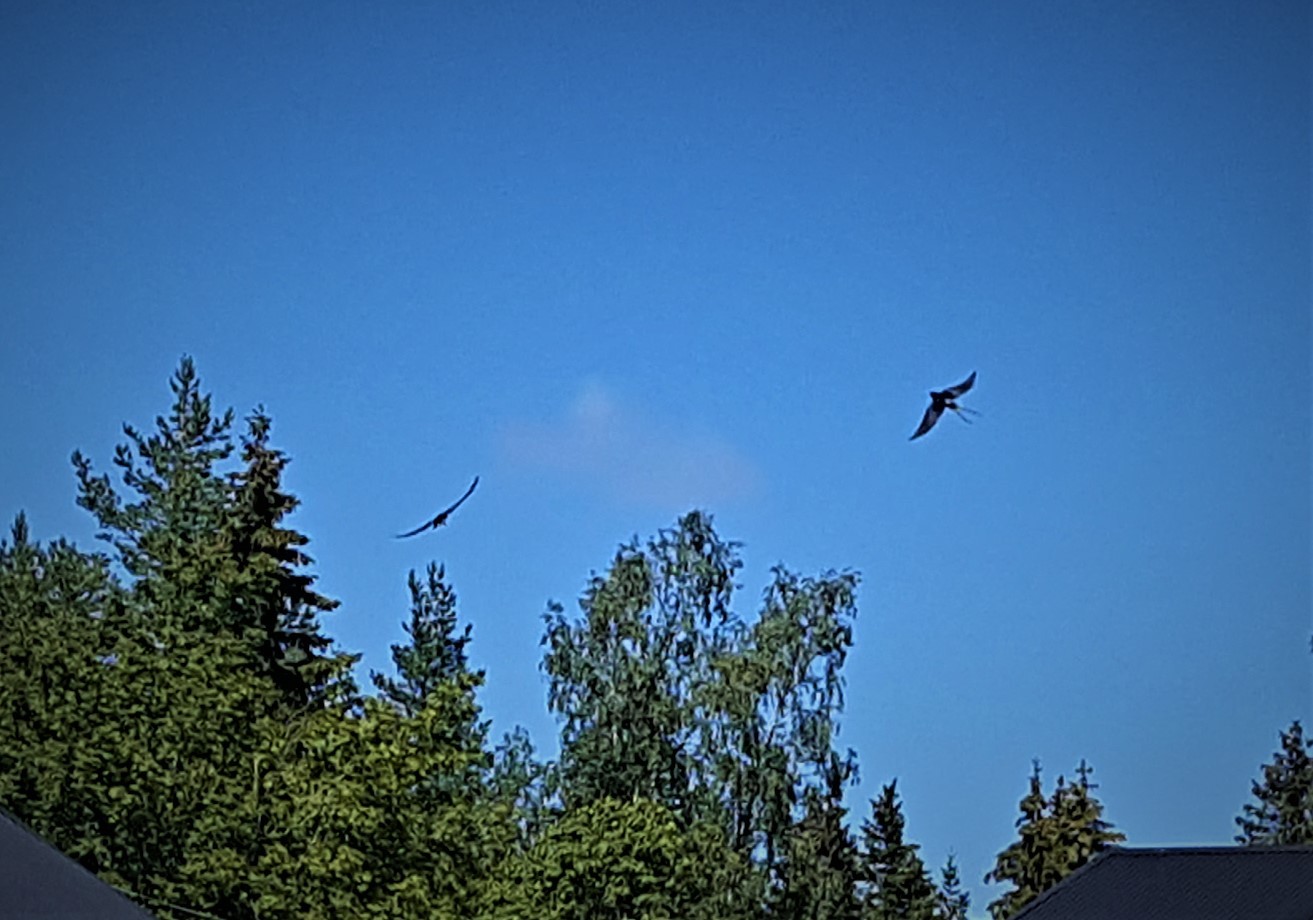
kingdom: Animalia
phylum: Chordata
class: Aves
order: Passeriformes
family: Hirundinidae
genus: Hirundo
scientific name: Hirundo rustica
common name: Barn swallow
